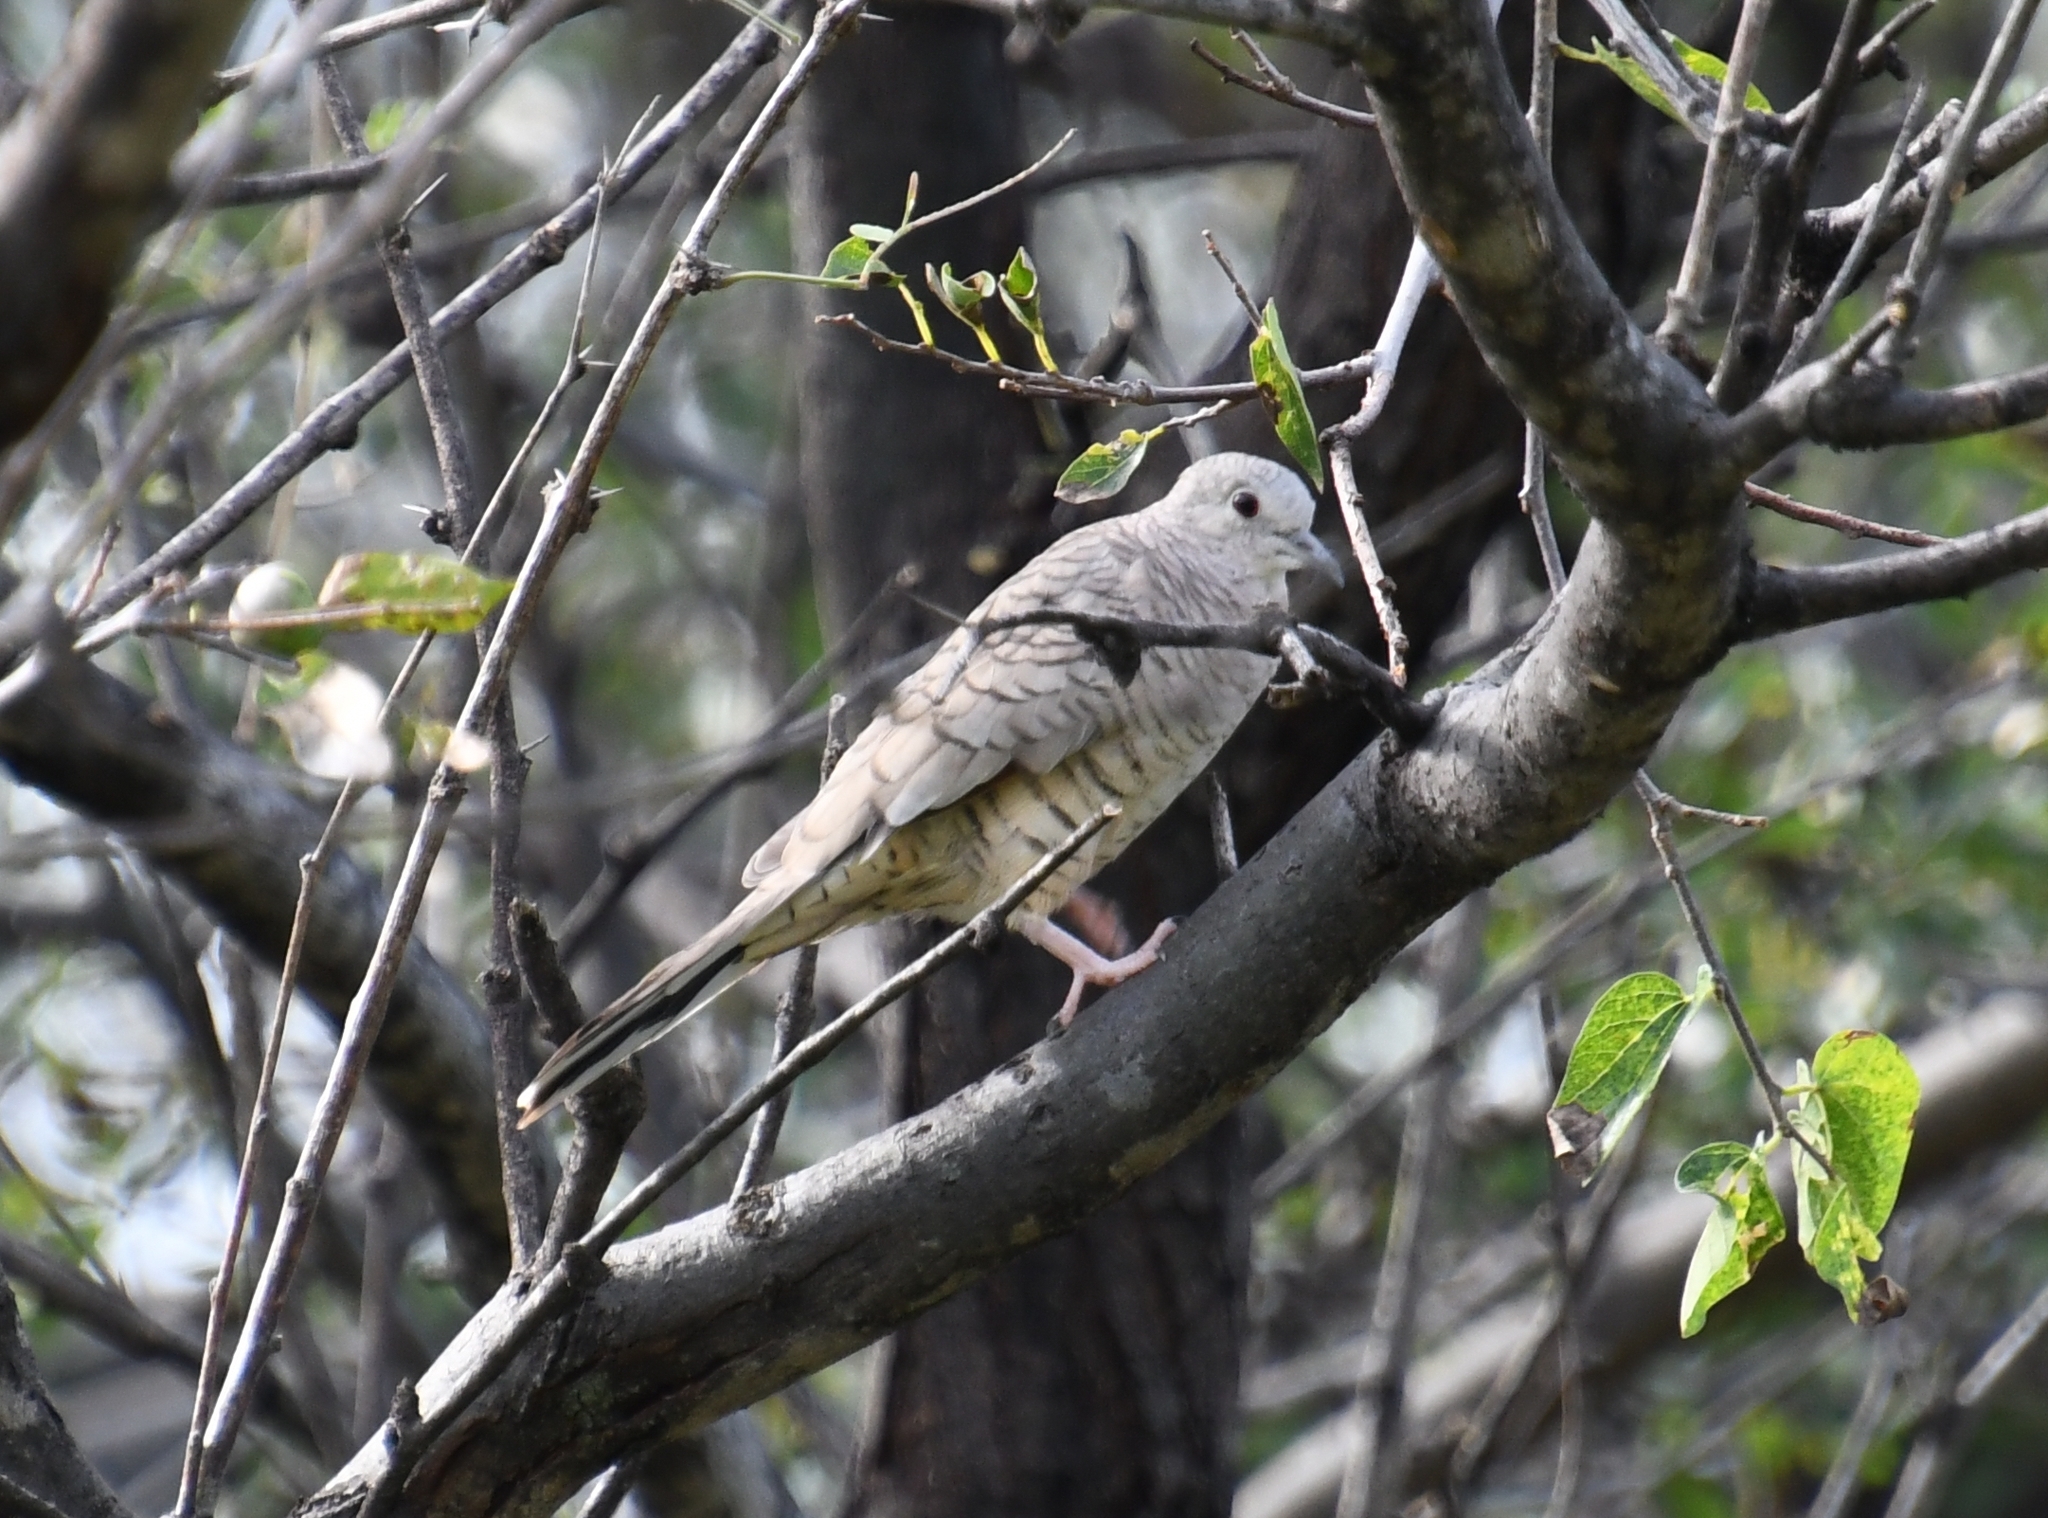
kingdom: Animalia
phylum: Chordata
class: Aves
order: Columbiformes
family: Columbidae
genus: Columbina
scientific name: Columbina inca
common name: Inca dove
